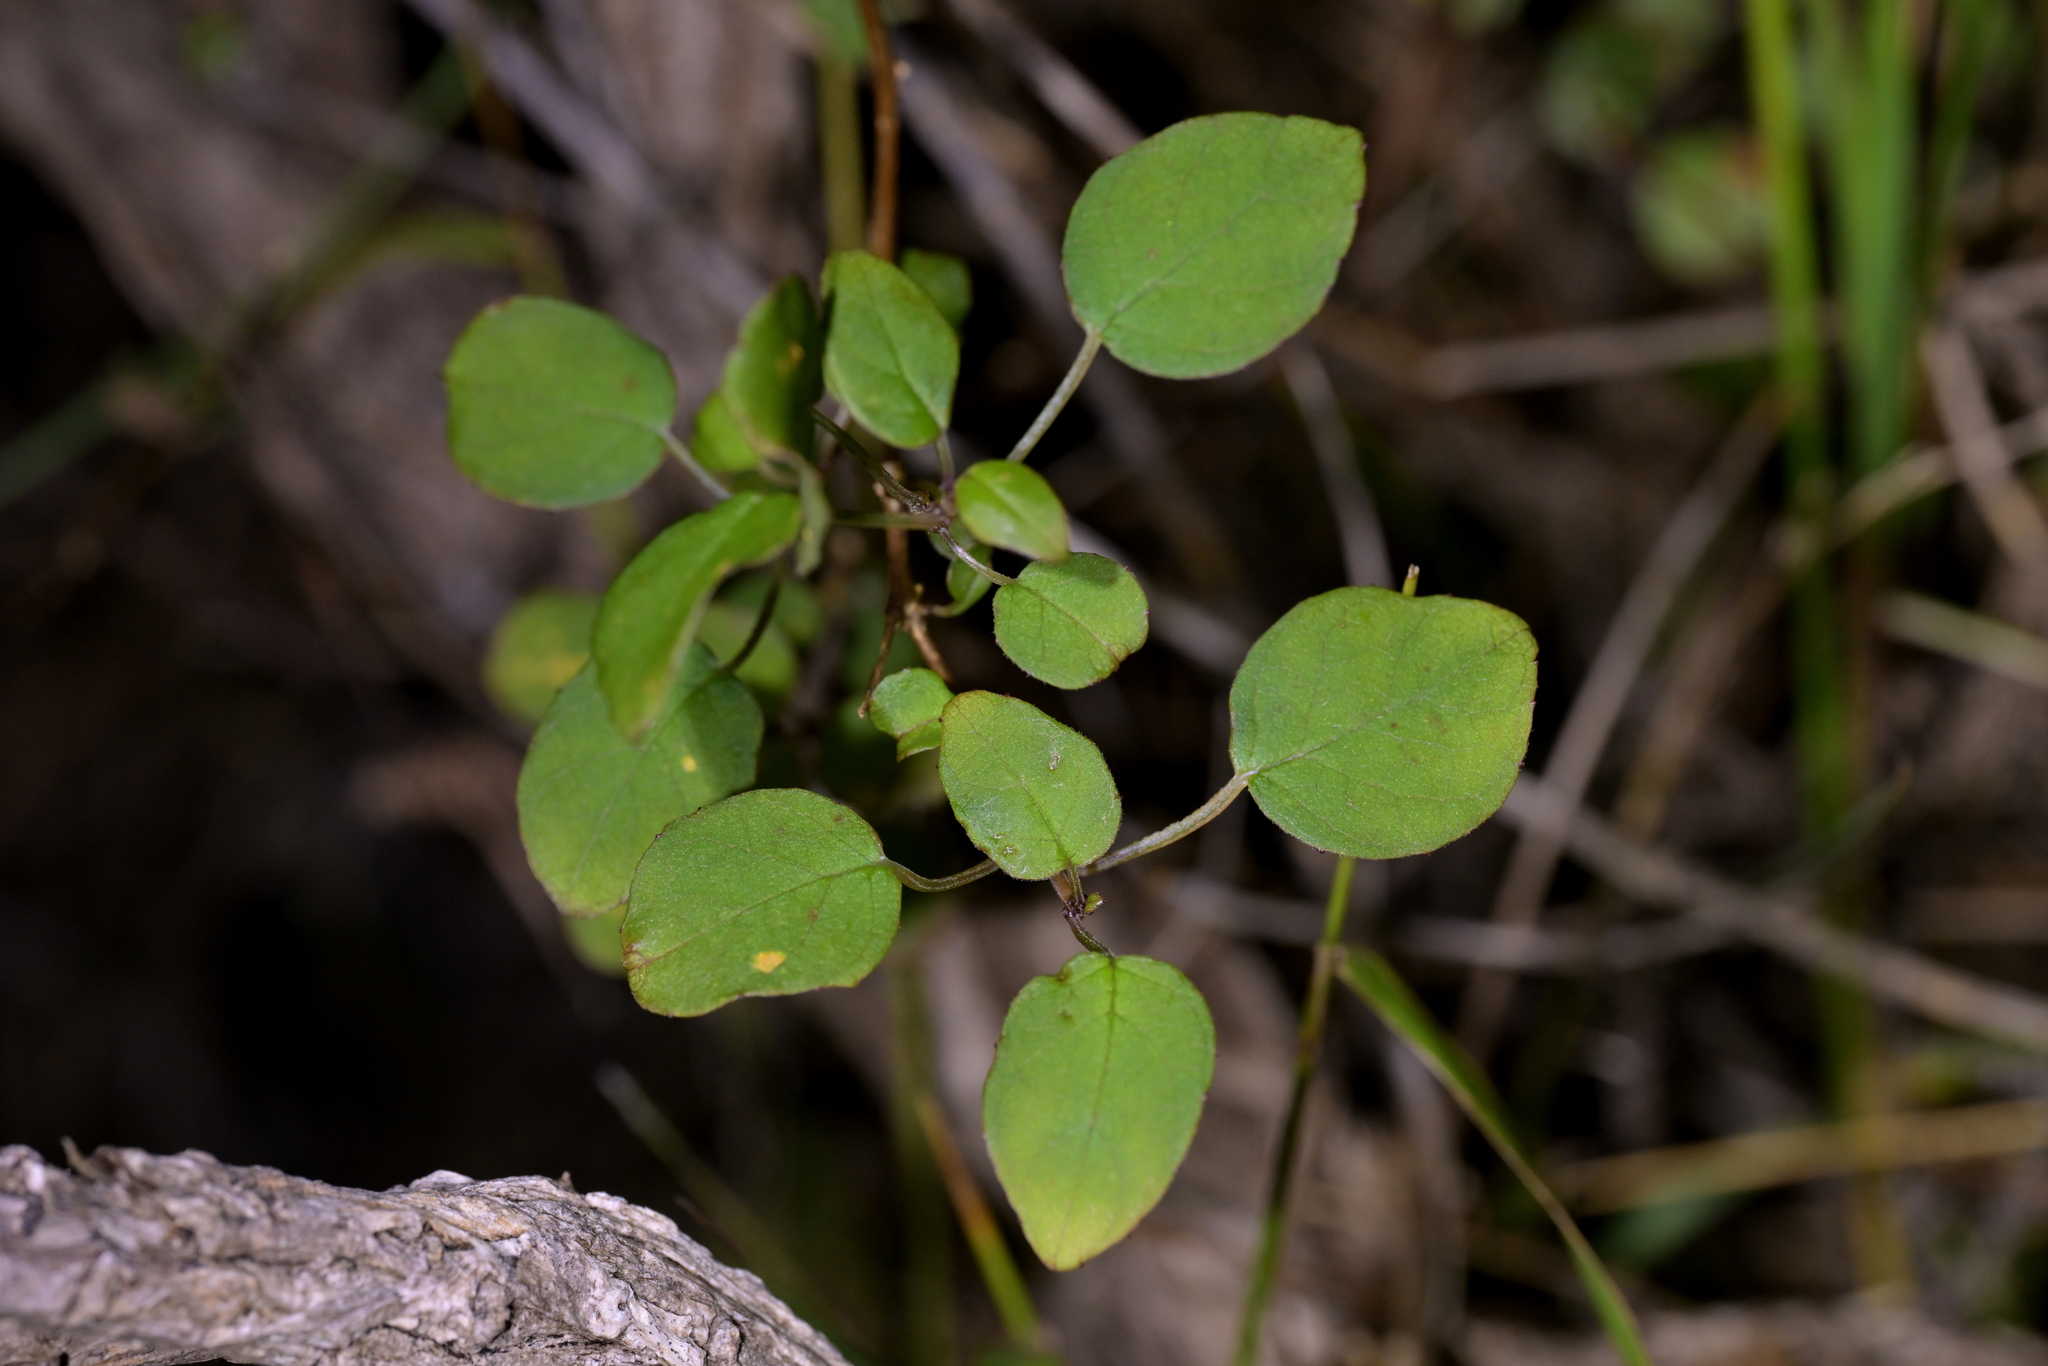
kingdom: Plantae
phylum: Tracheophyta
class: Magnoliopsida
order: Myrtales
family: Onagraceae
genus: Fuchsia
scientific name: Fuchsia perscandens
